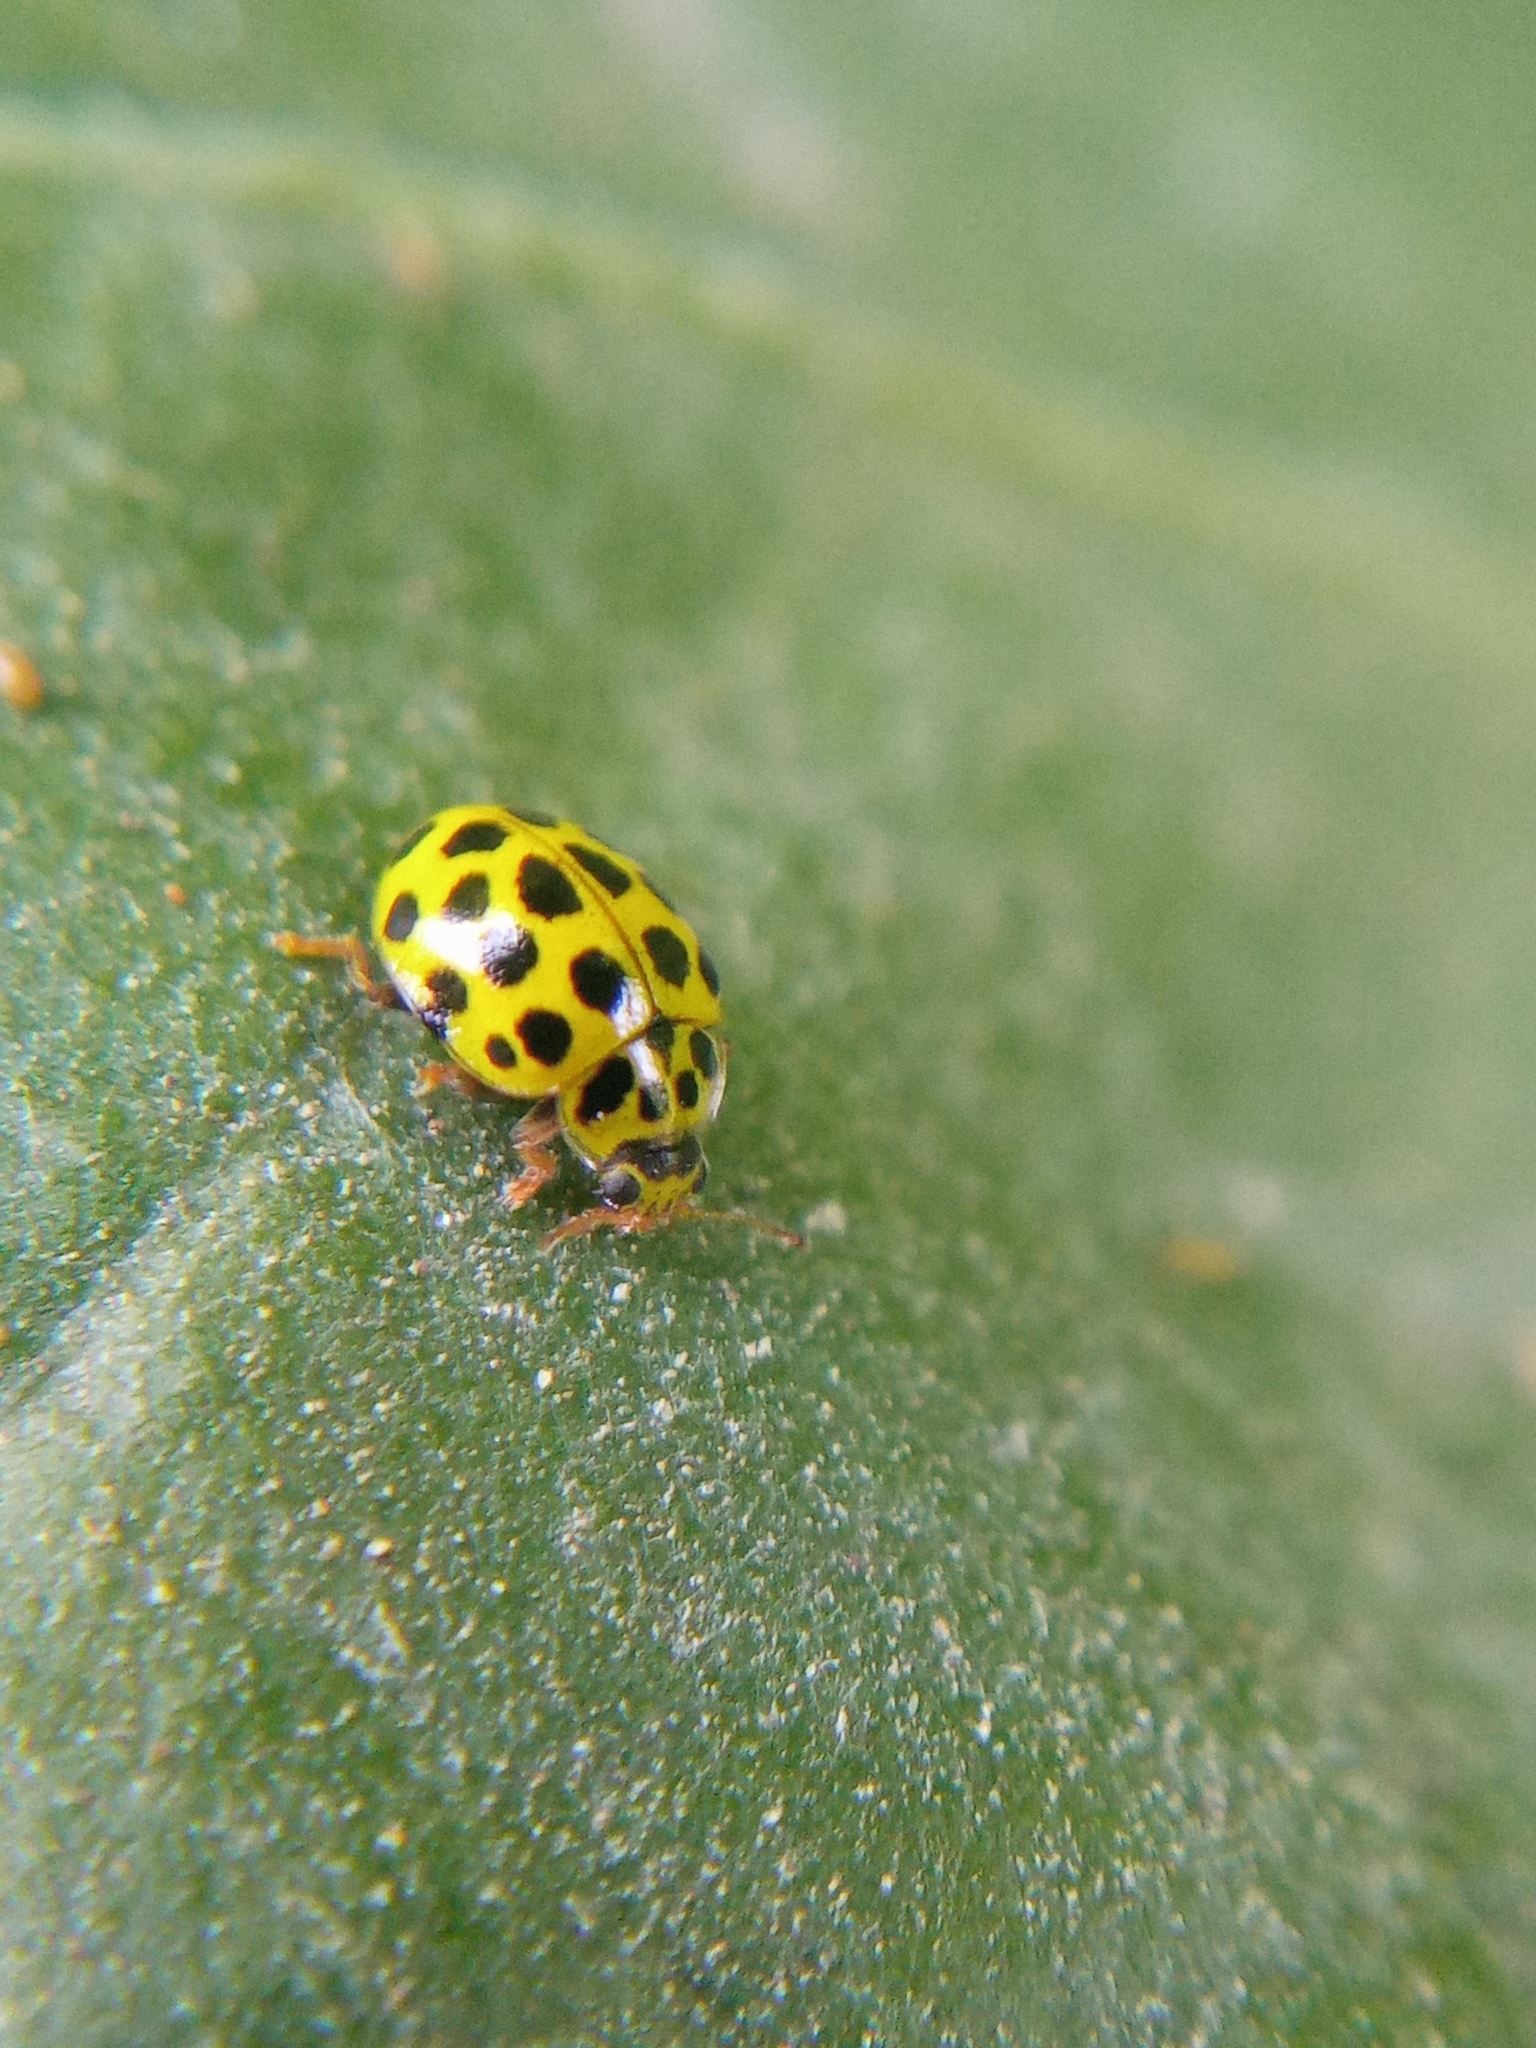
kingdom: Animalia
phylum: Arthropoda
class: Insecta
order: Coleoptera
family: Coccinellidae
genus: Psyllobora
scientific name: Psyllobora vigintiduopunctata
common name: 22-spot ladybird
